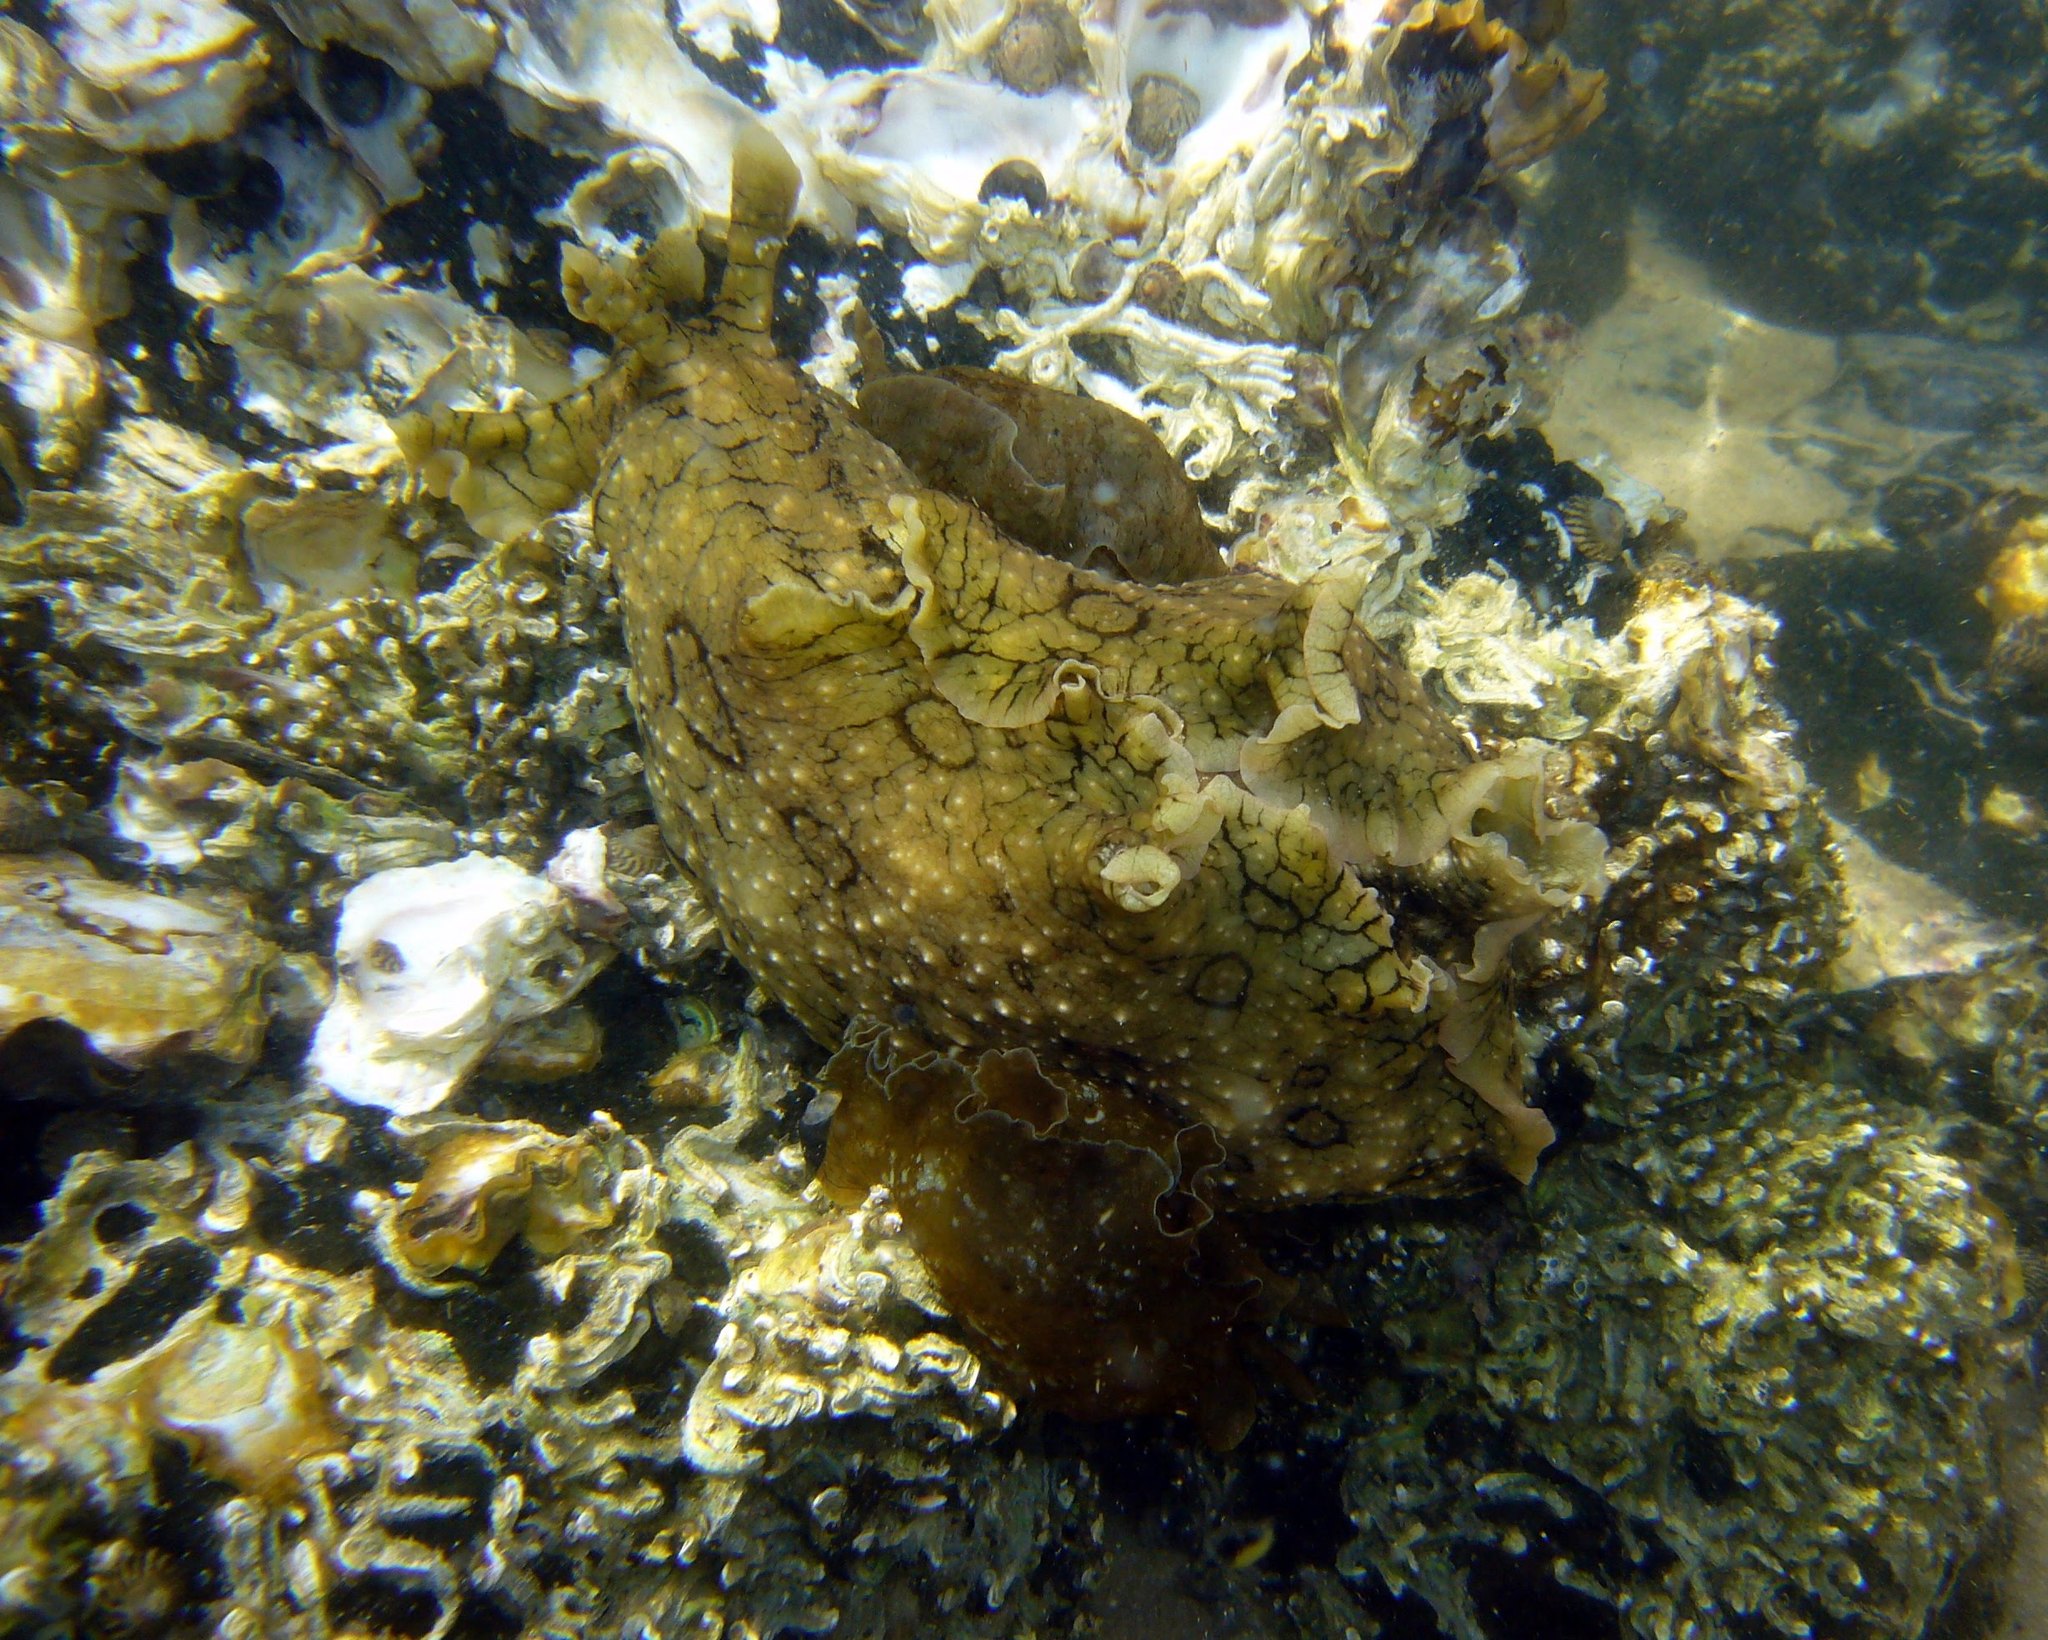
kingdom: Animalia
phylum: Mollusca
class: Gastropoda
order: Aplysiida
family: Aplysiidae
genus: Aplysia
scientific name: Aplysia argus
